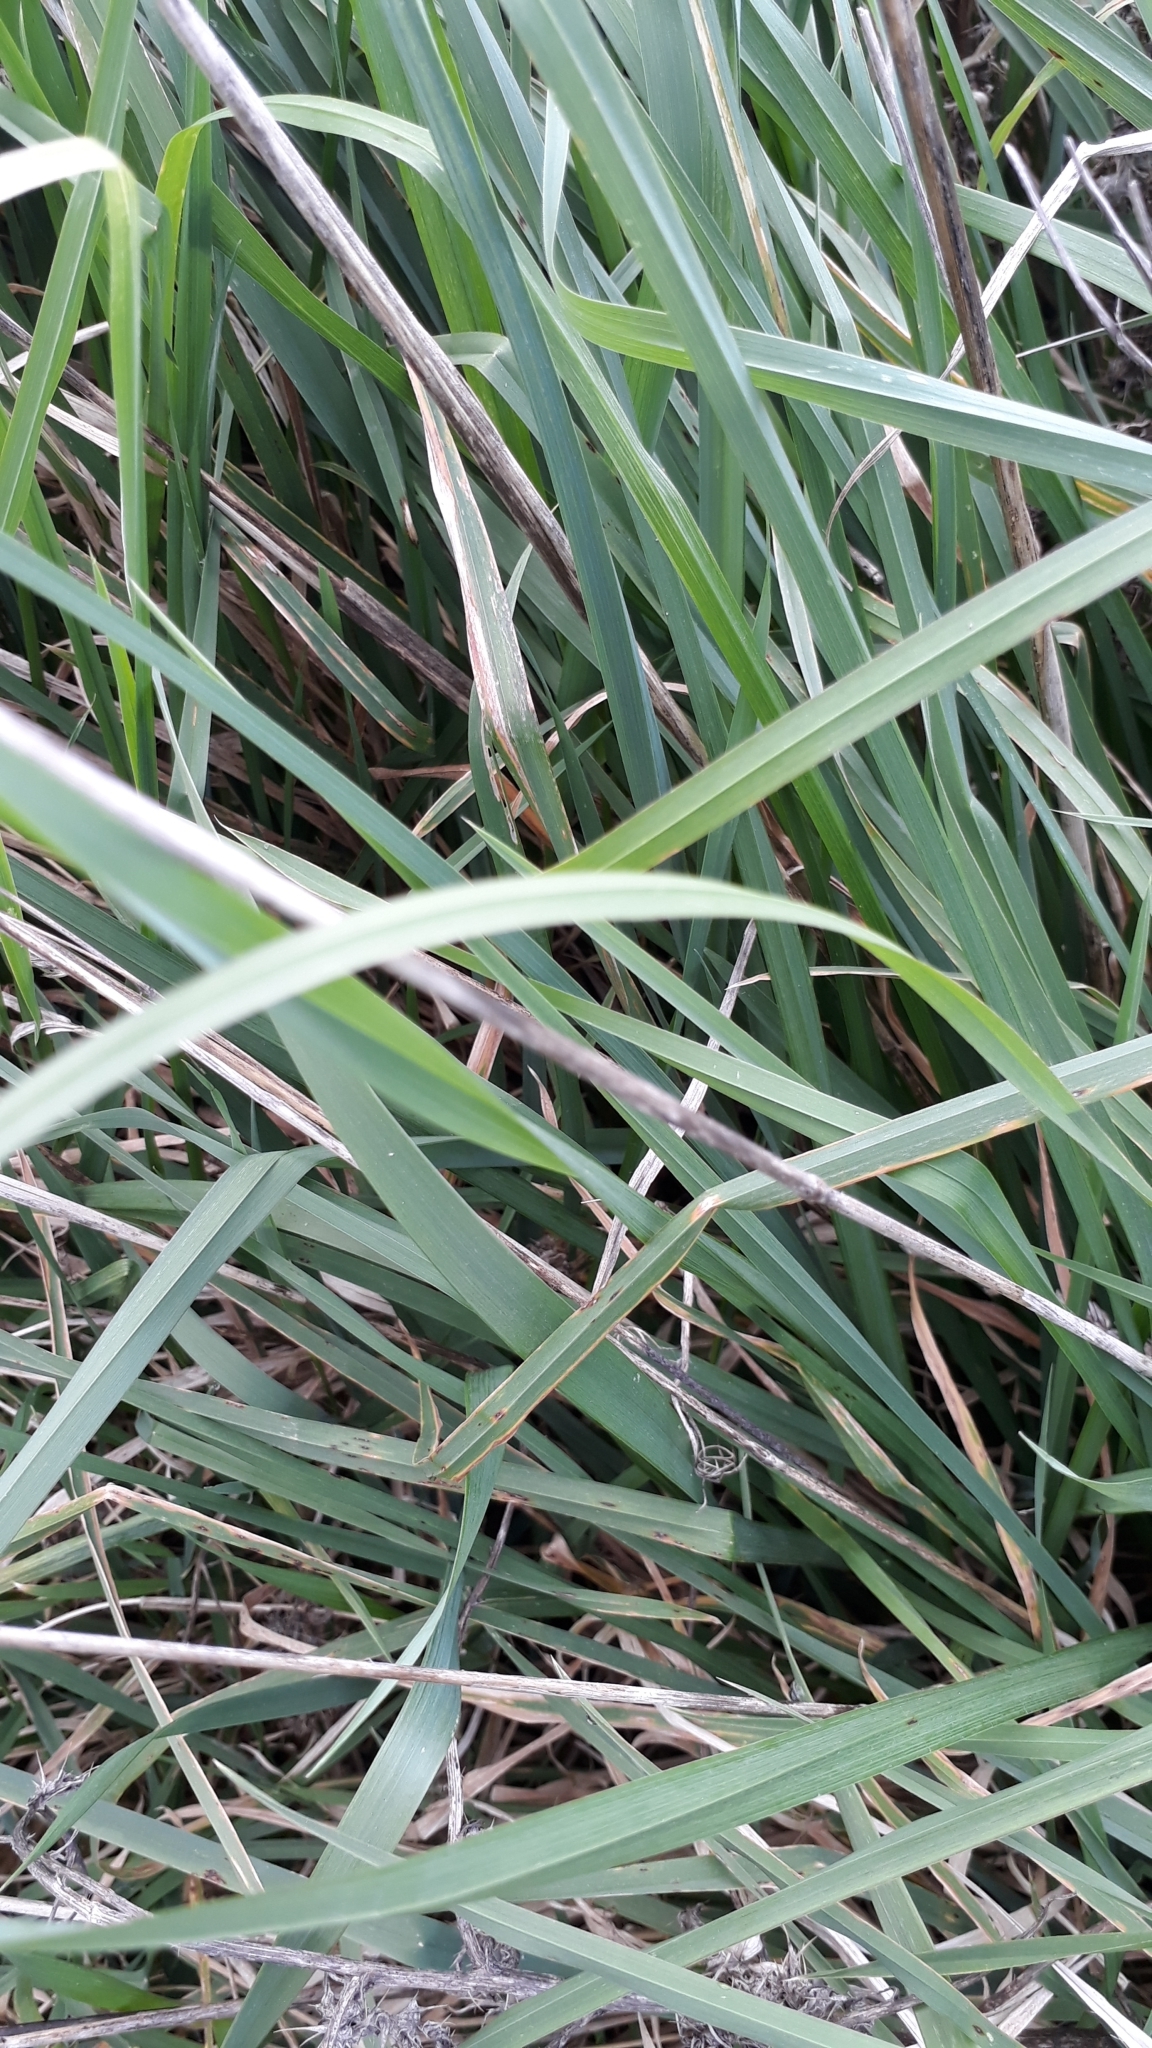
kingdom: Plantae
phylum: Tracheophyta
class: Liliopsida
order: Poales
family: Poaceae
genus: Dactylis
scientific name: Dactylis glomerata
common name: Orchardgrass
